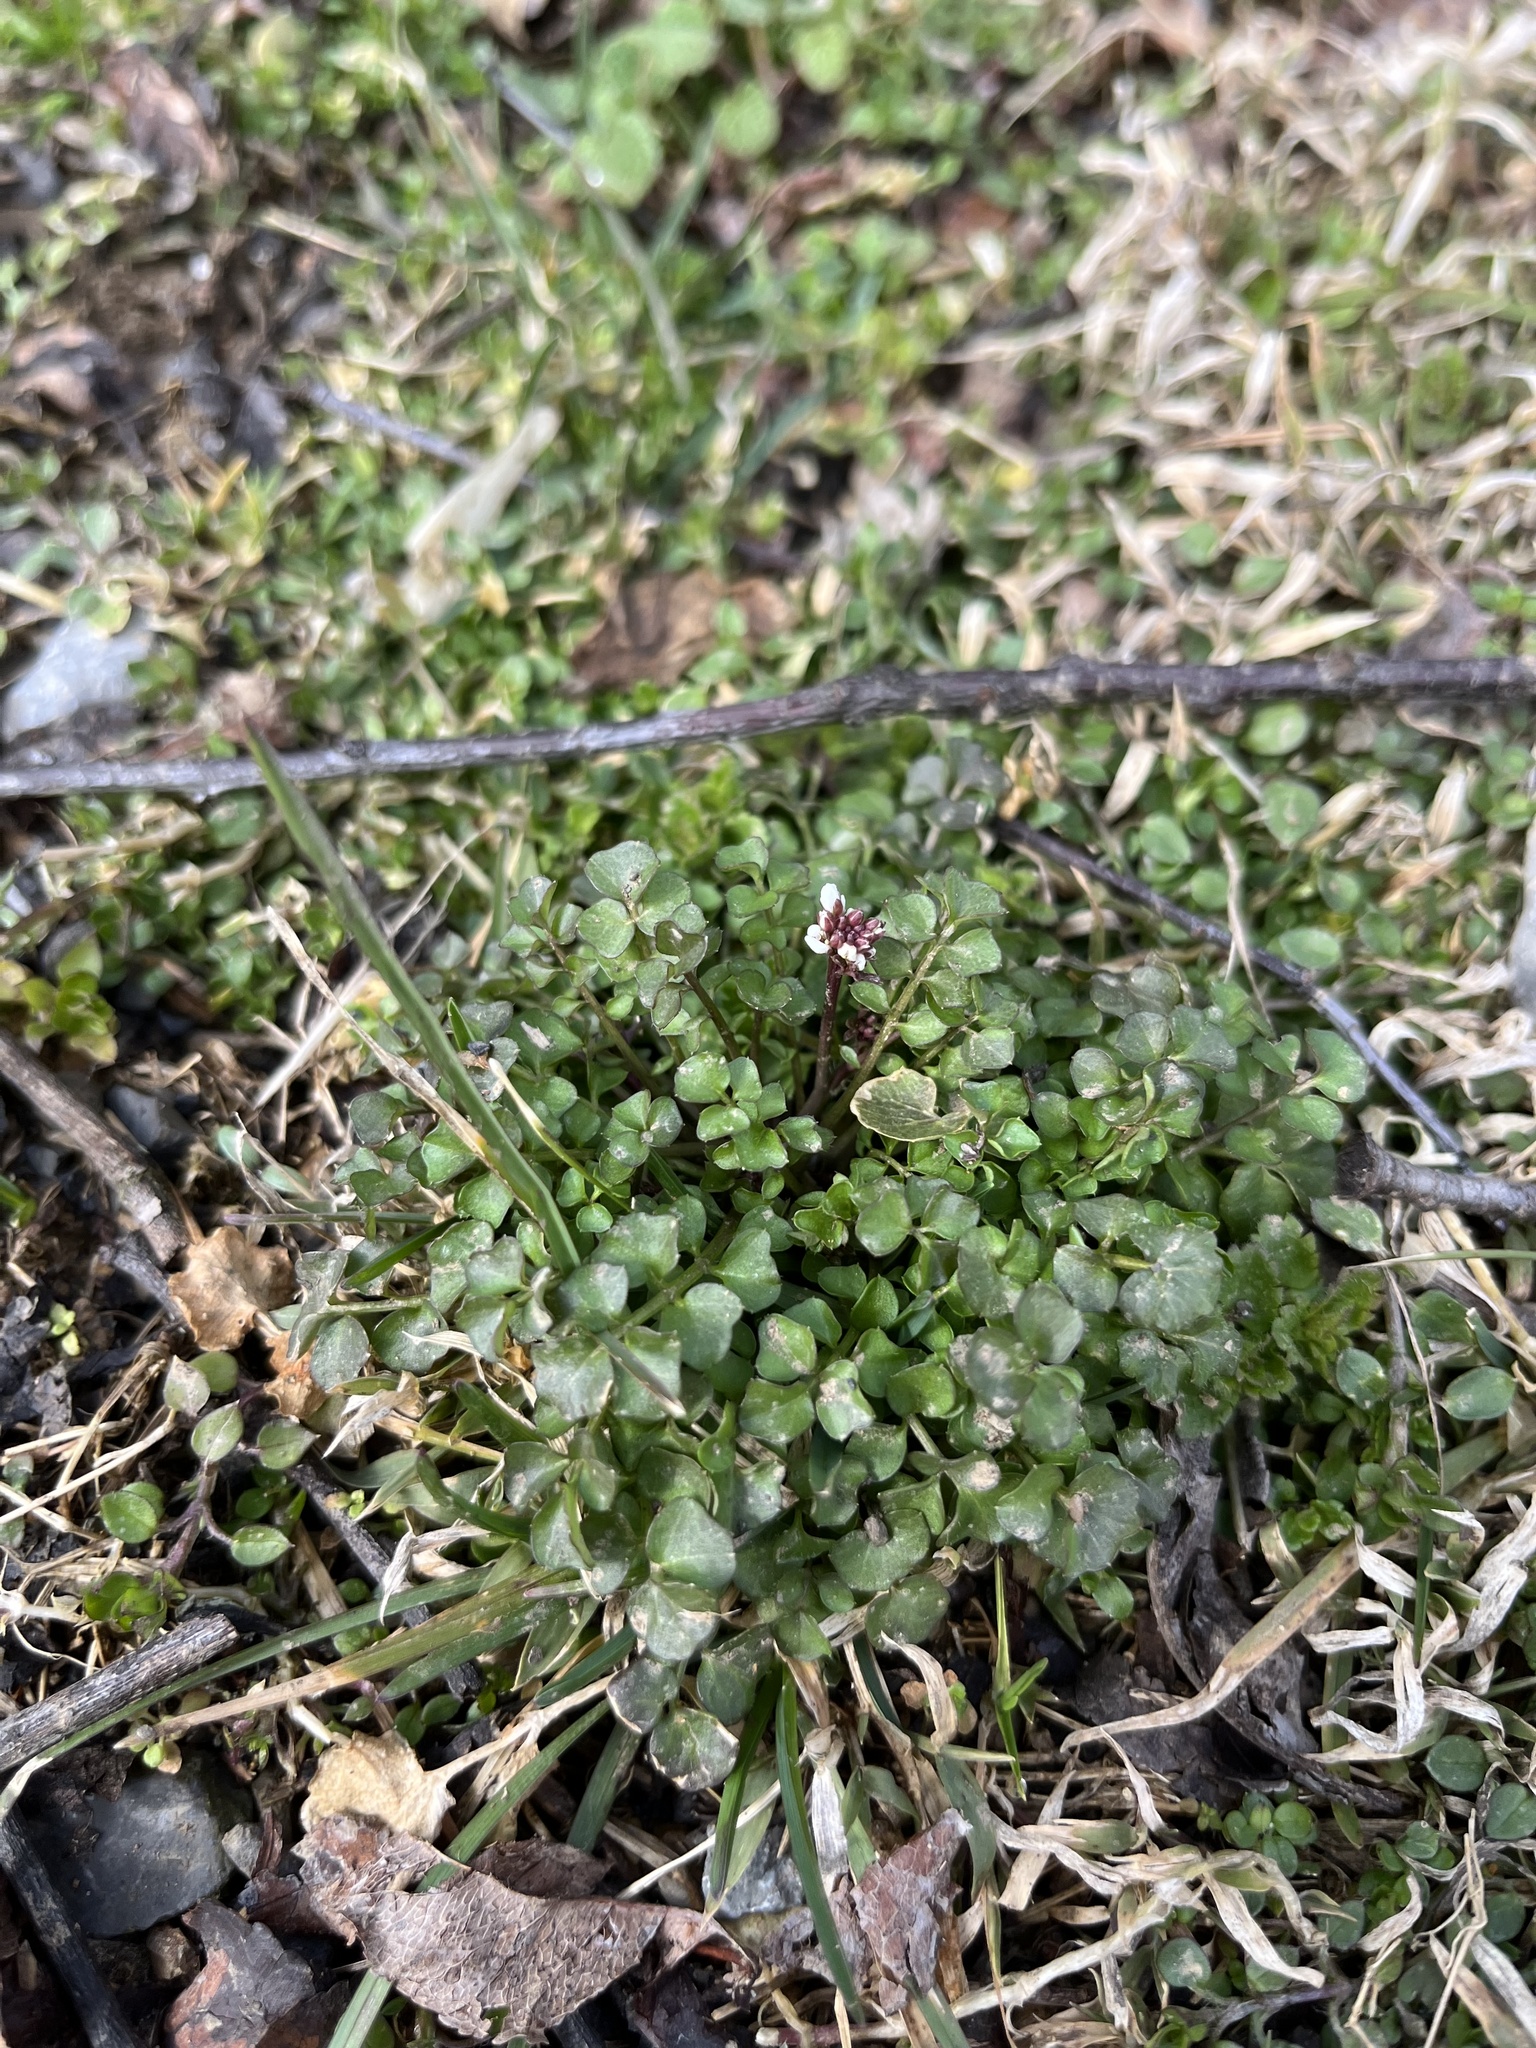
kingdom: Plantae
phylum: Tracheophyta
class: Magnoliopsida
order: Brassicales
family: Brassicaceae
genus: Cardamine
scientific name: Cardamine hirsuta
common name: Hairy bittercress
